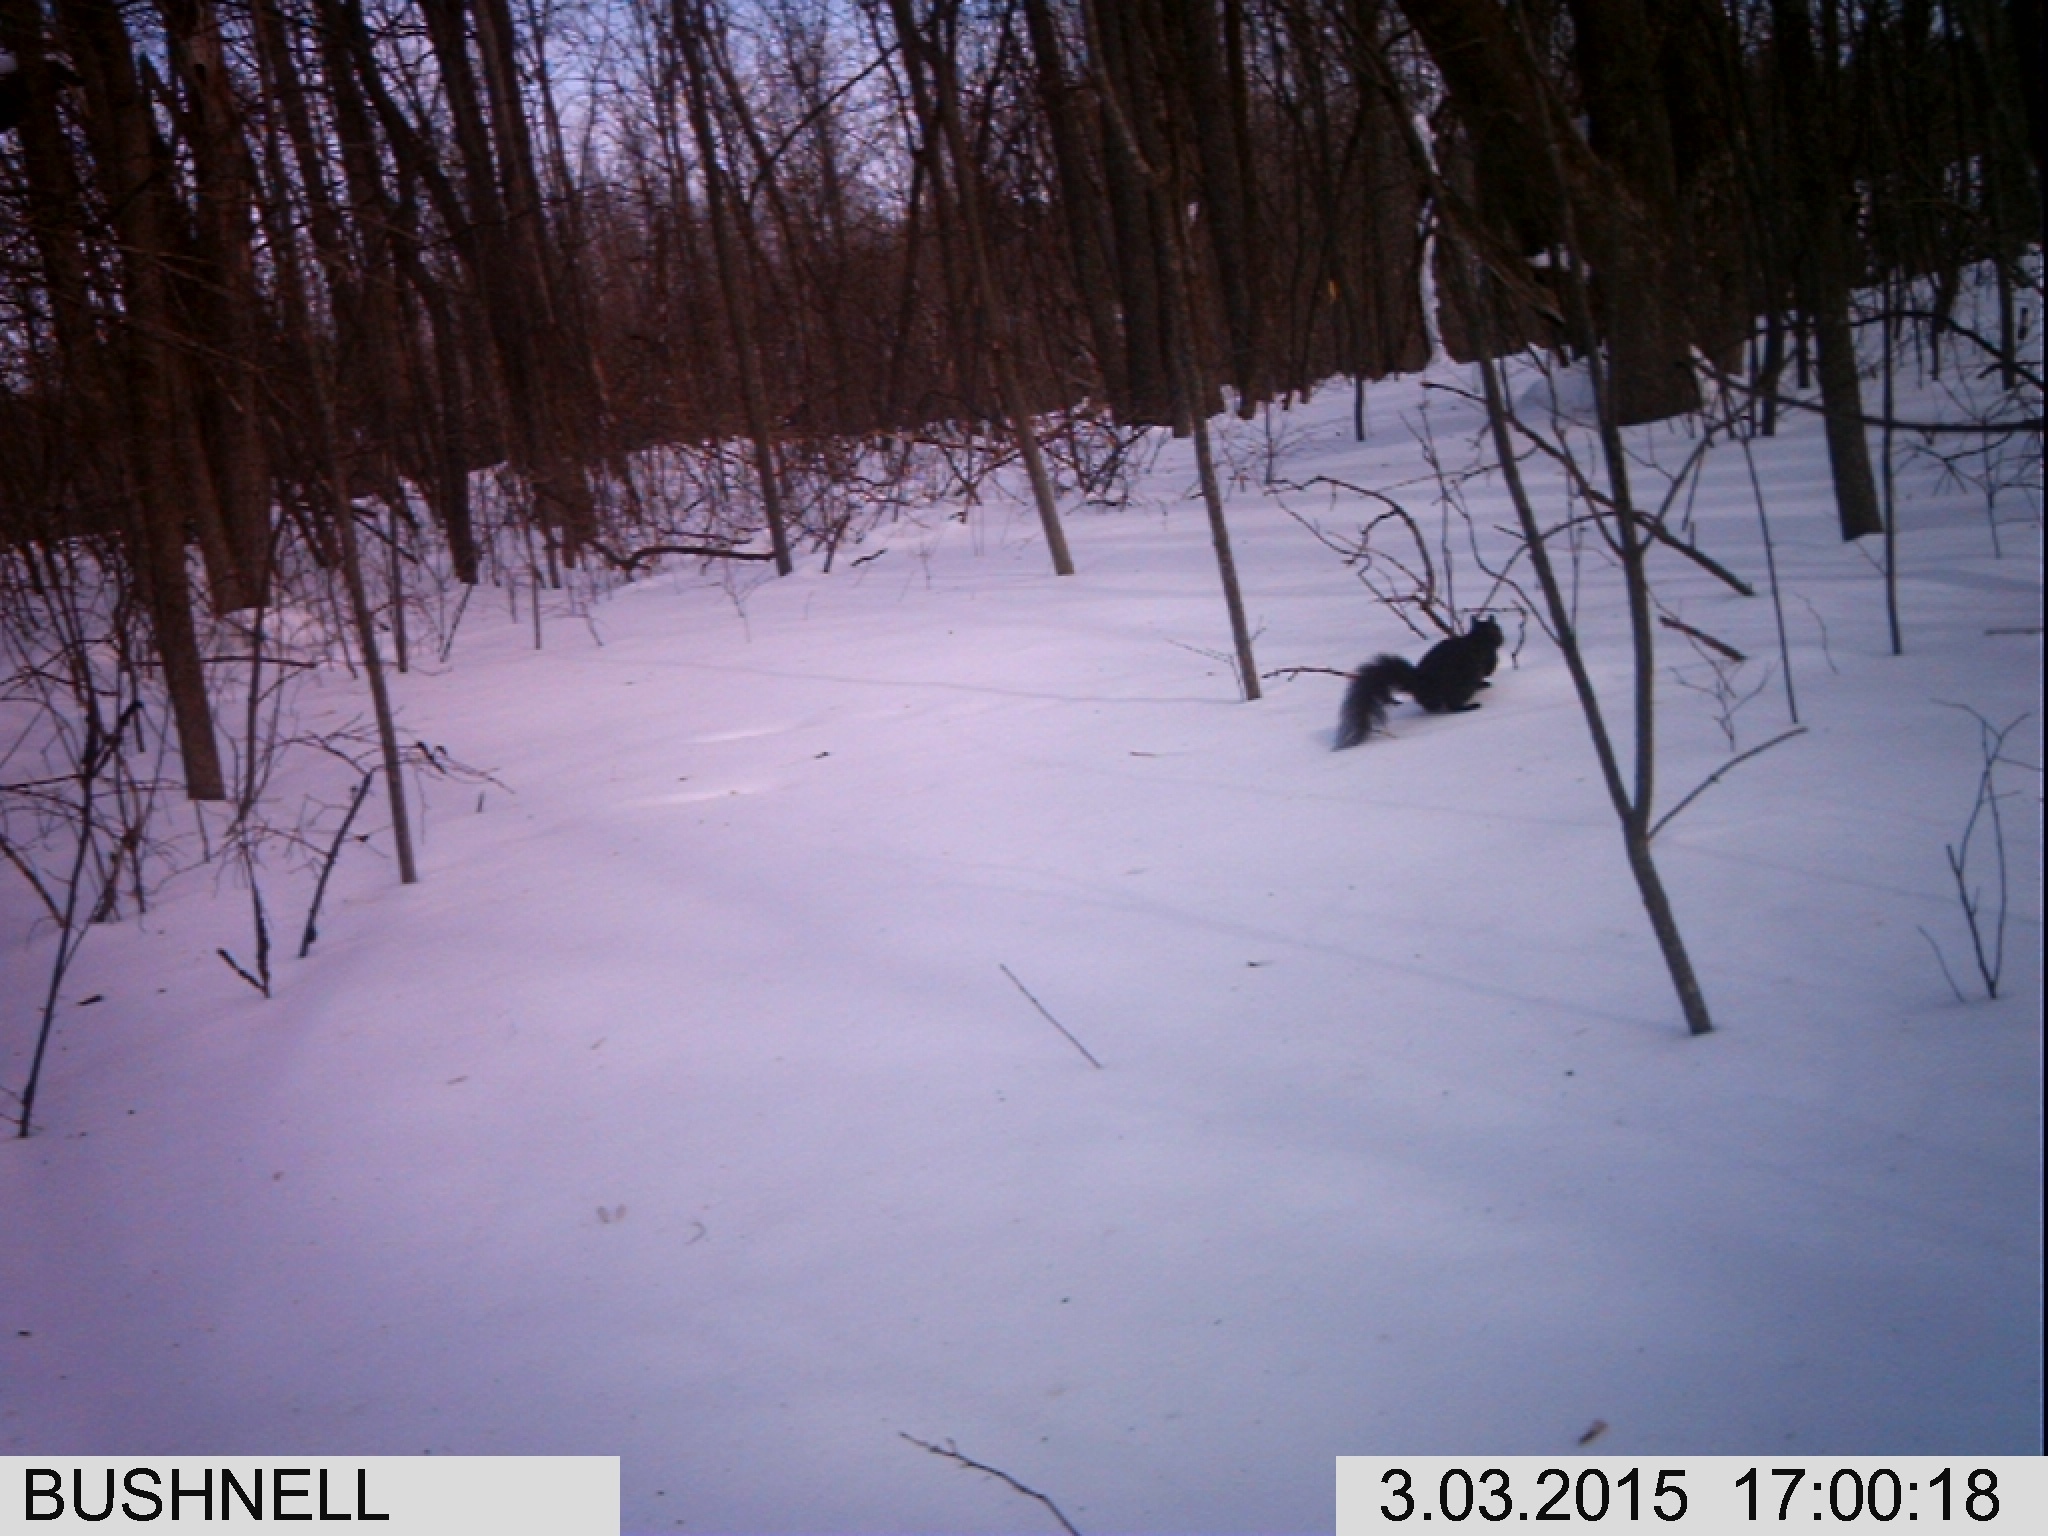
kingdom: Animalia
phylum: Chordata
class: Mammalia
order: Rodentia
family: Sciuridae
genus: Sciurus
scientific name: Sciurus carolinensis
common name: Eastern gray squirrel
